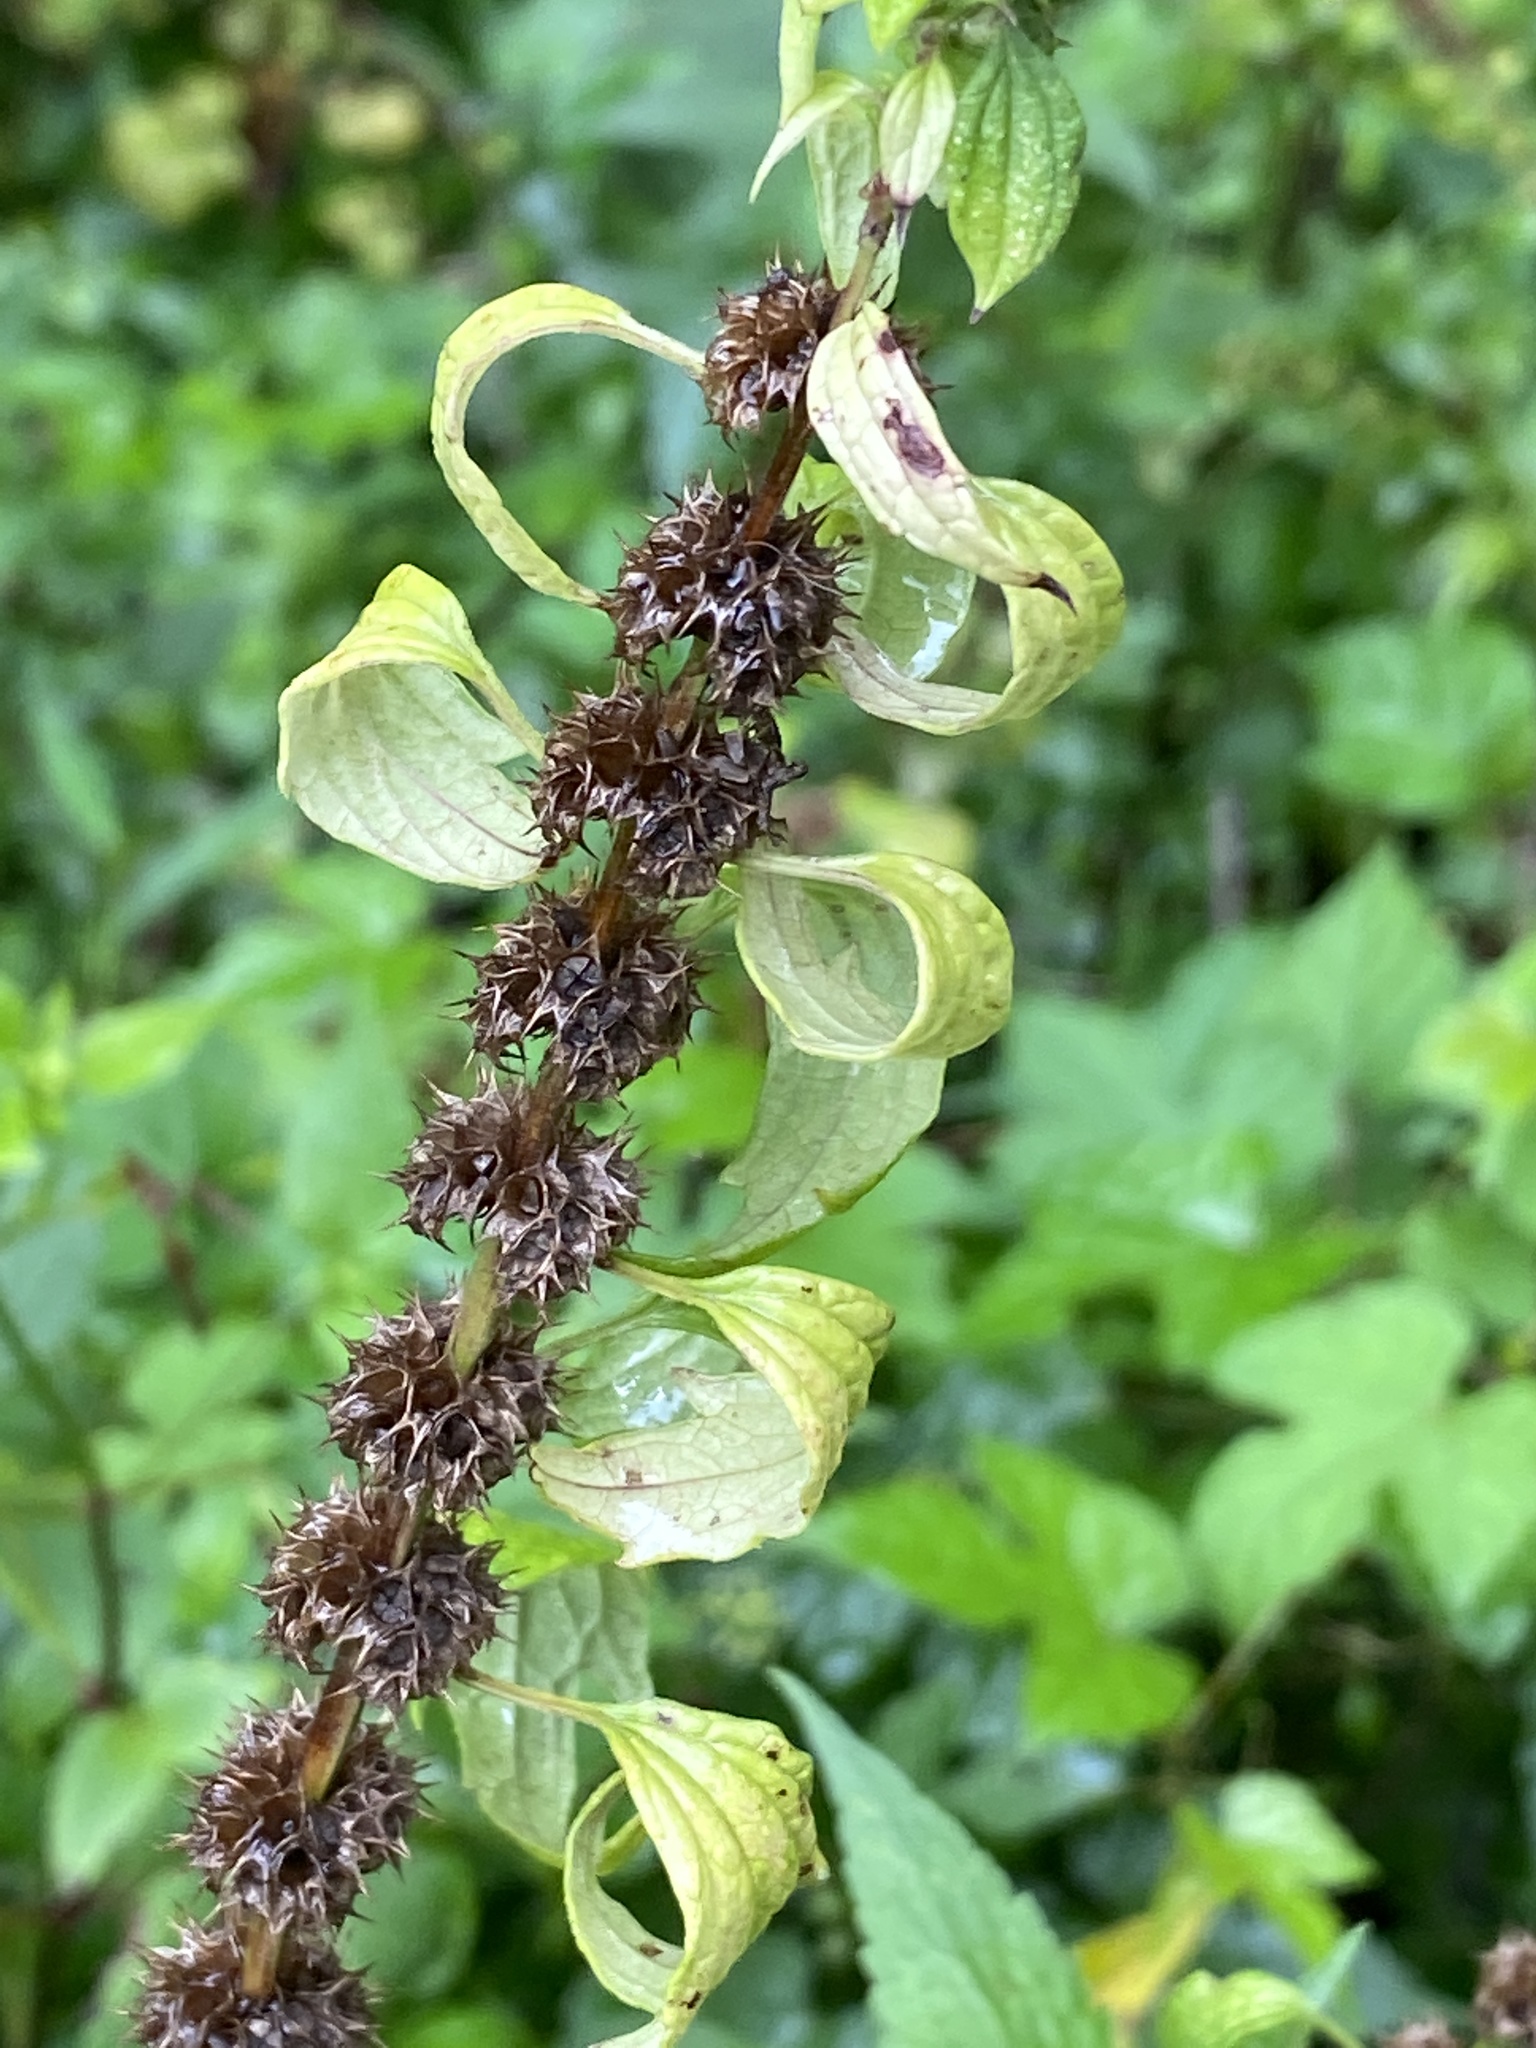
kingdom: Plantae
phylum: Tracheophyta
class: Magnoliopsida
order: Lamiales
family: Lamiaceae
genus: Leonurus
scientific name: Leonurus cardiaca
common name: Motherwort
